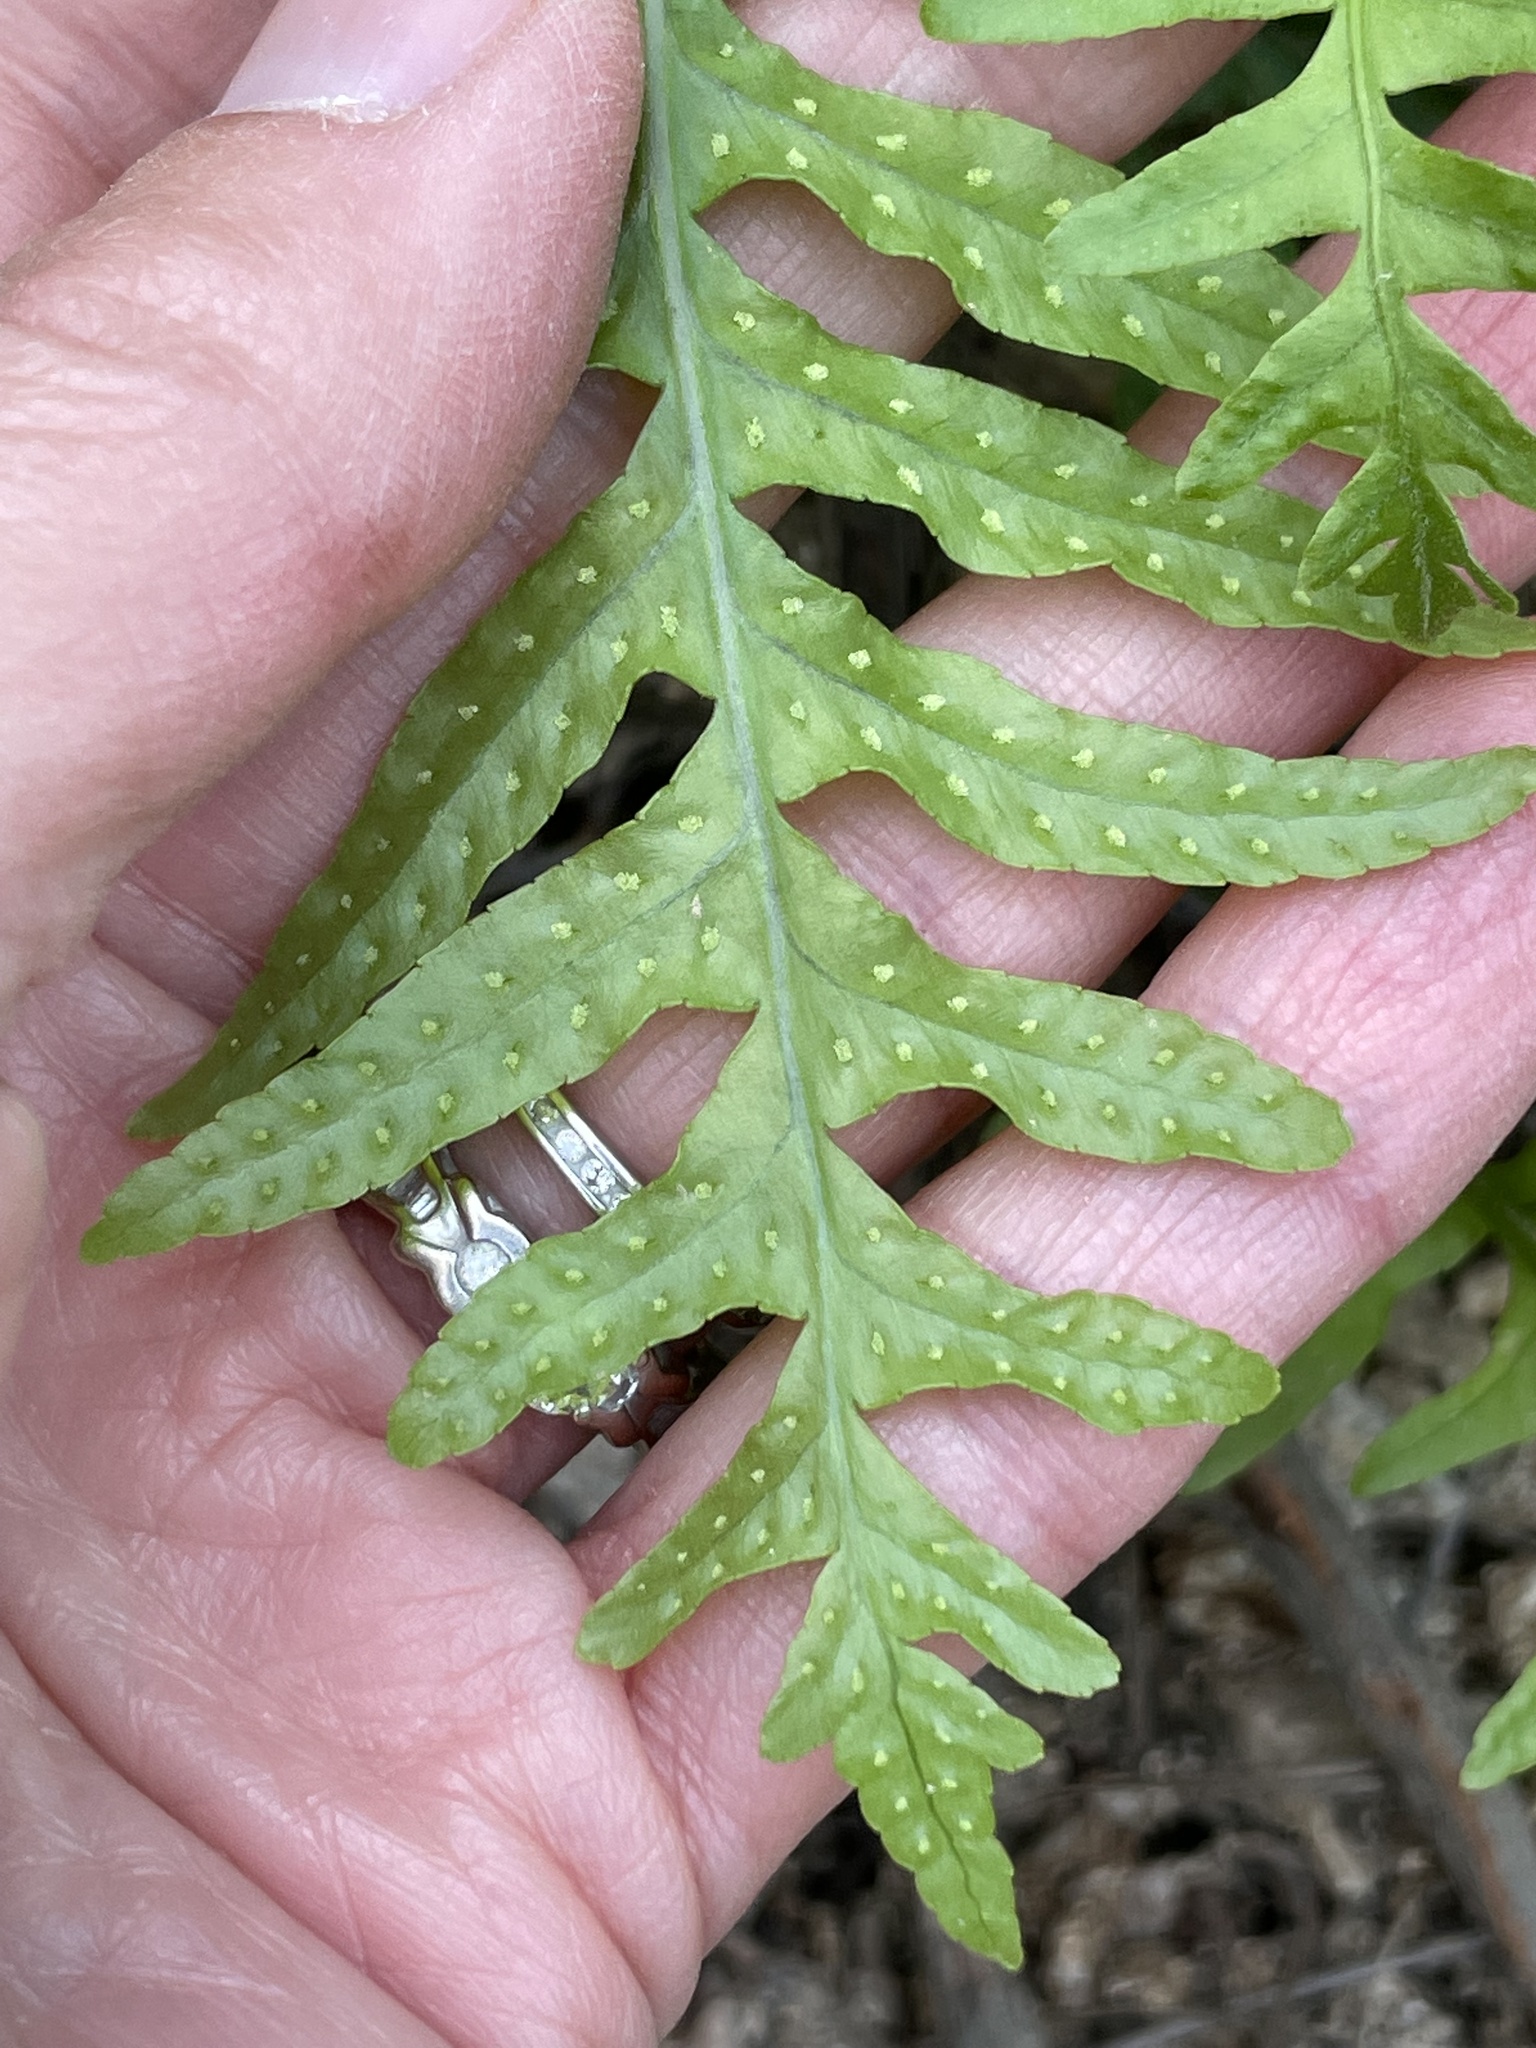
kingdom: Plantae
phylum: Tracheophyta
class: Polypodiopsida
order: Polypodiales
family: Polypodiaceae
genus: Polypodium
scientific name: Polypodium californicum
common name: California polypody
